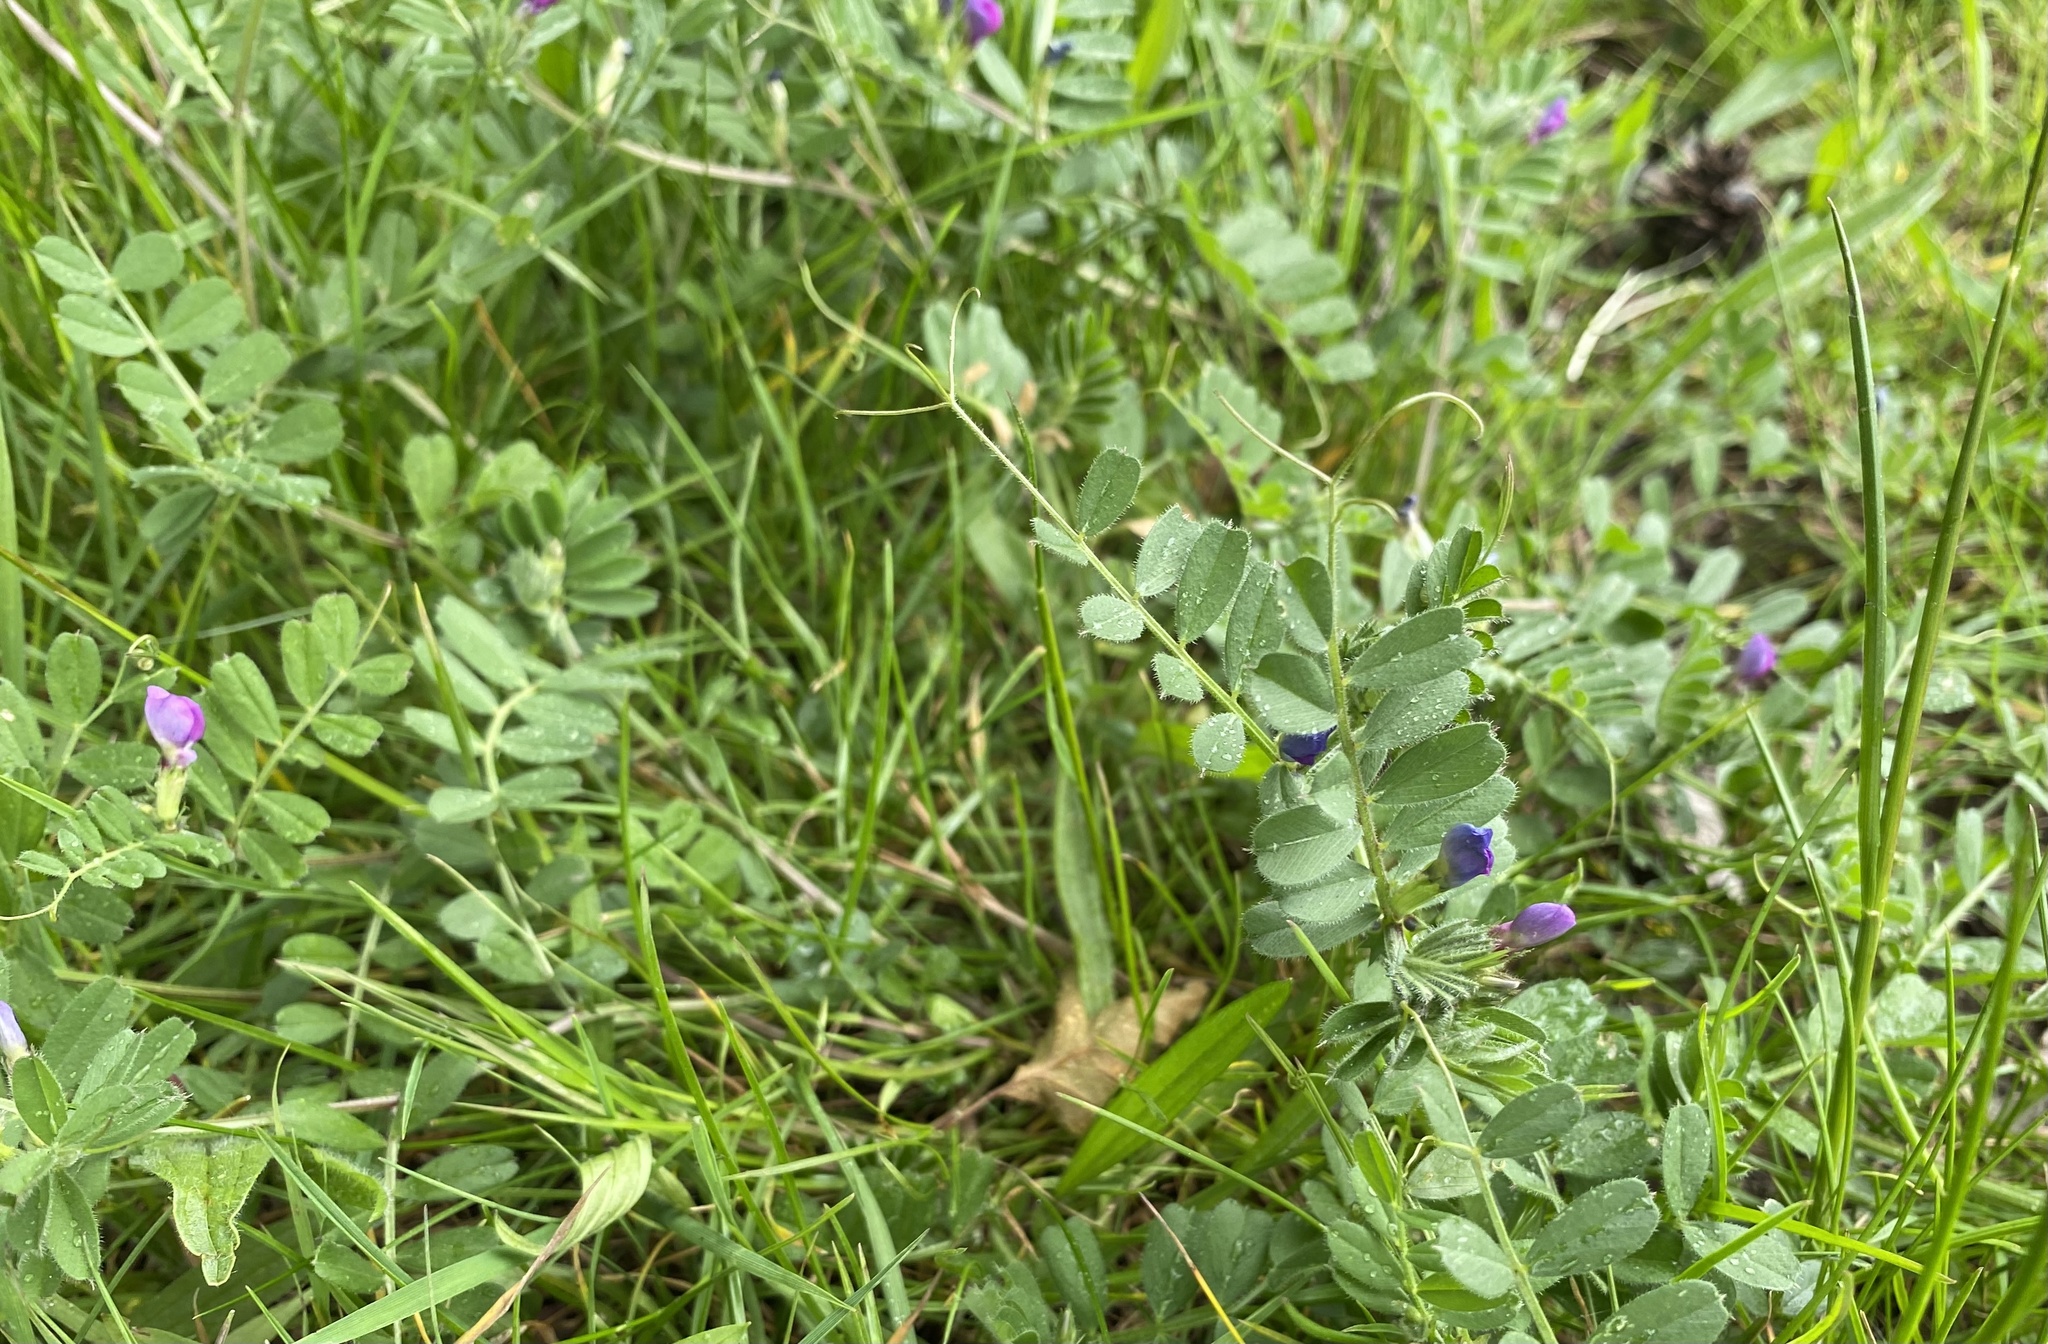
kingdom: Plantae
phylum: Tracheophyta
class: Magnoliopsida
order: Fabales
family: Fabaceae
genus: Vicia
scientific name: Vicia sativa
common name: Garden vetch
